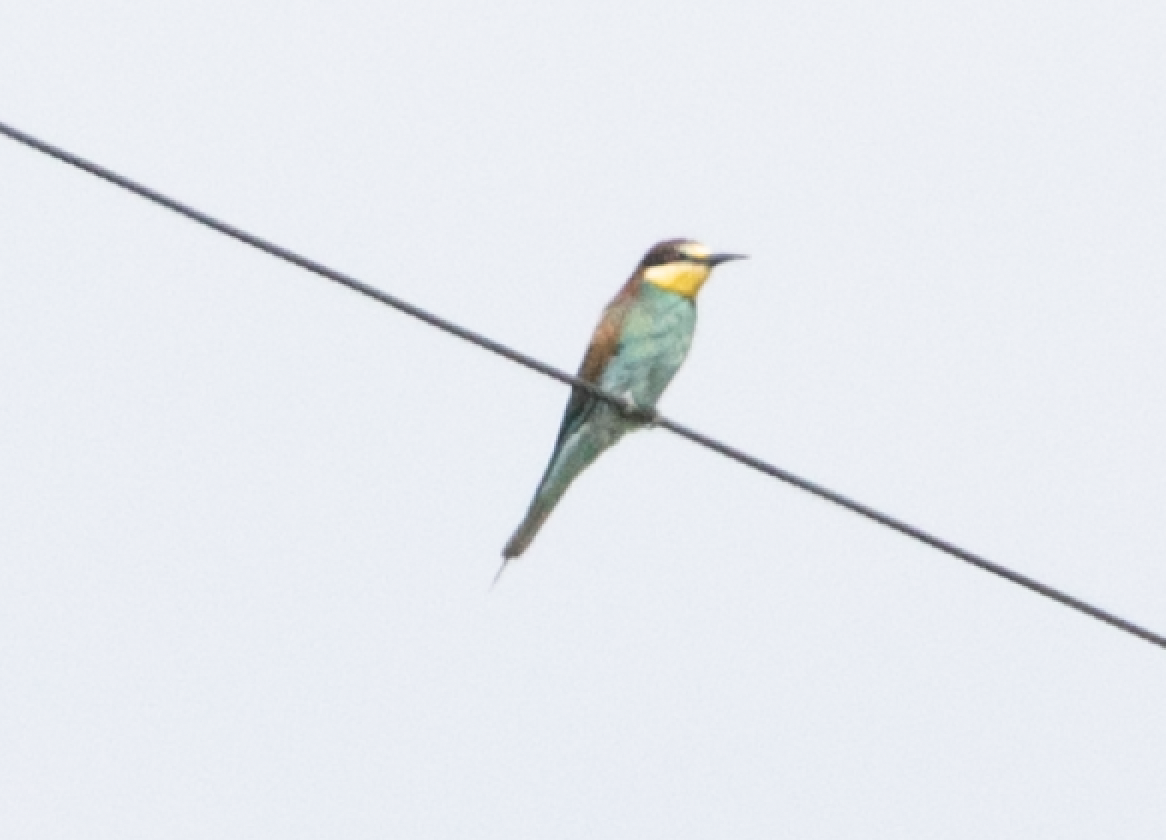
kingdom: Animalia
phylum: Chordata
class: Aves
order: Coraciiformes
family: Meropidae
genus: Merops
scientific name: Merops apiaster
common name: European bee-eater
